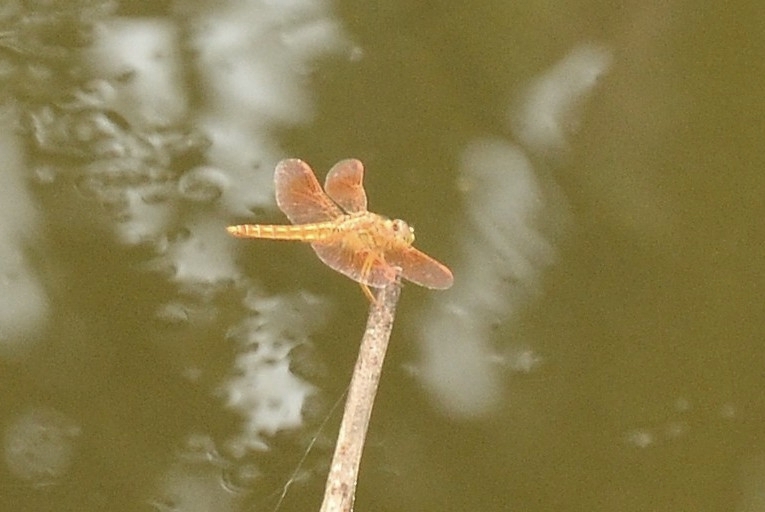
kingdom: Animalia
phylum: Arthropoda
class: Insecta
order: Odonata
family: Libellulidae
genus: Brachythemis
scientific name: Brachythemis contaminata
